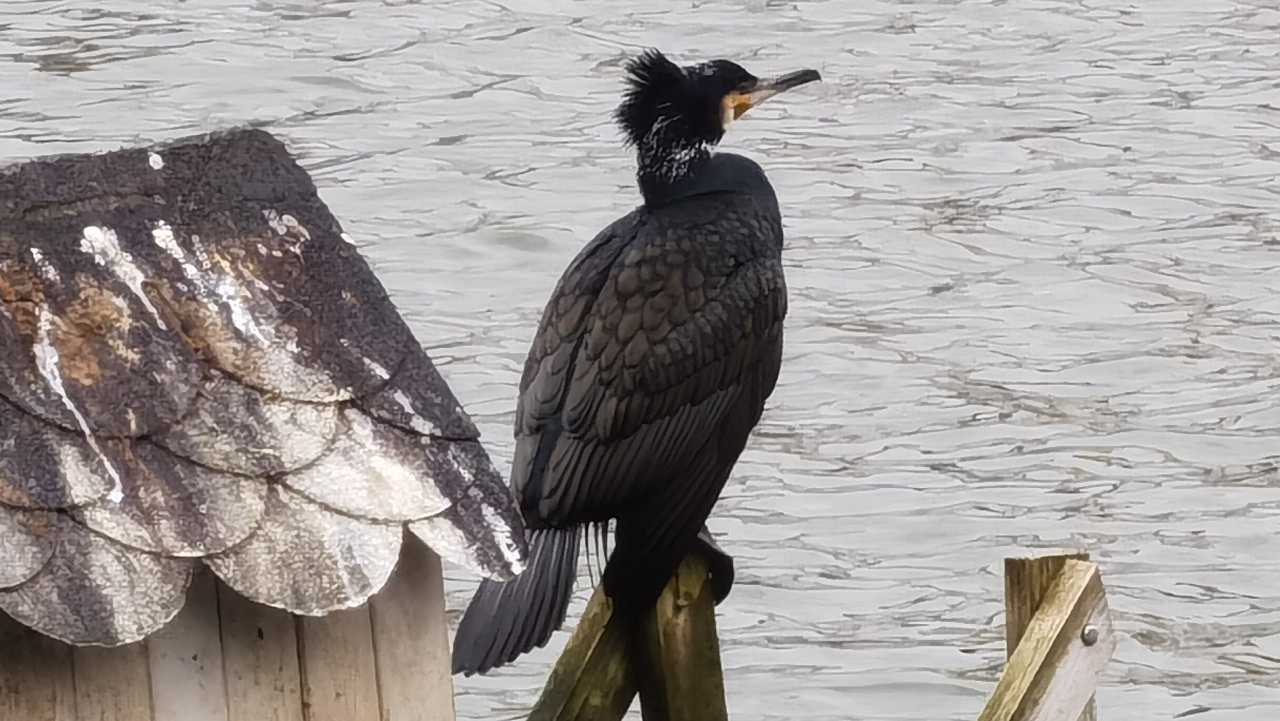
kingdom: Animalia
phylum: Chordata
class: Aves
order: Suliformes
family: Phalacrocoracidae
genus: Phalacrocorax
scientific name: Phalacrocorax carbo
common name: Great cormorant
